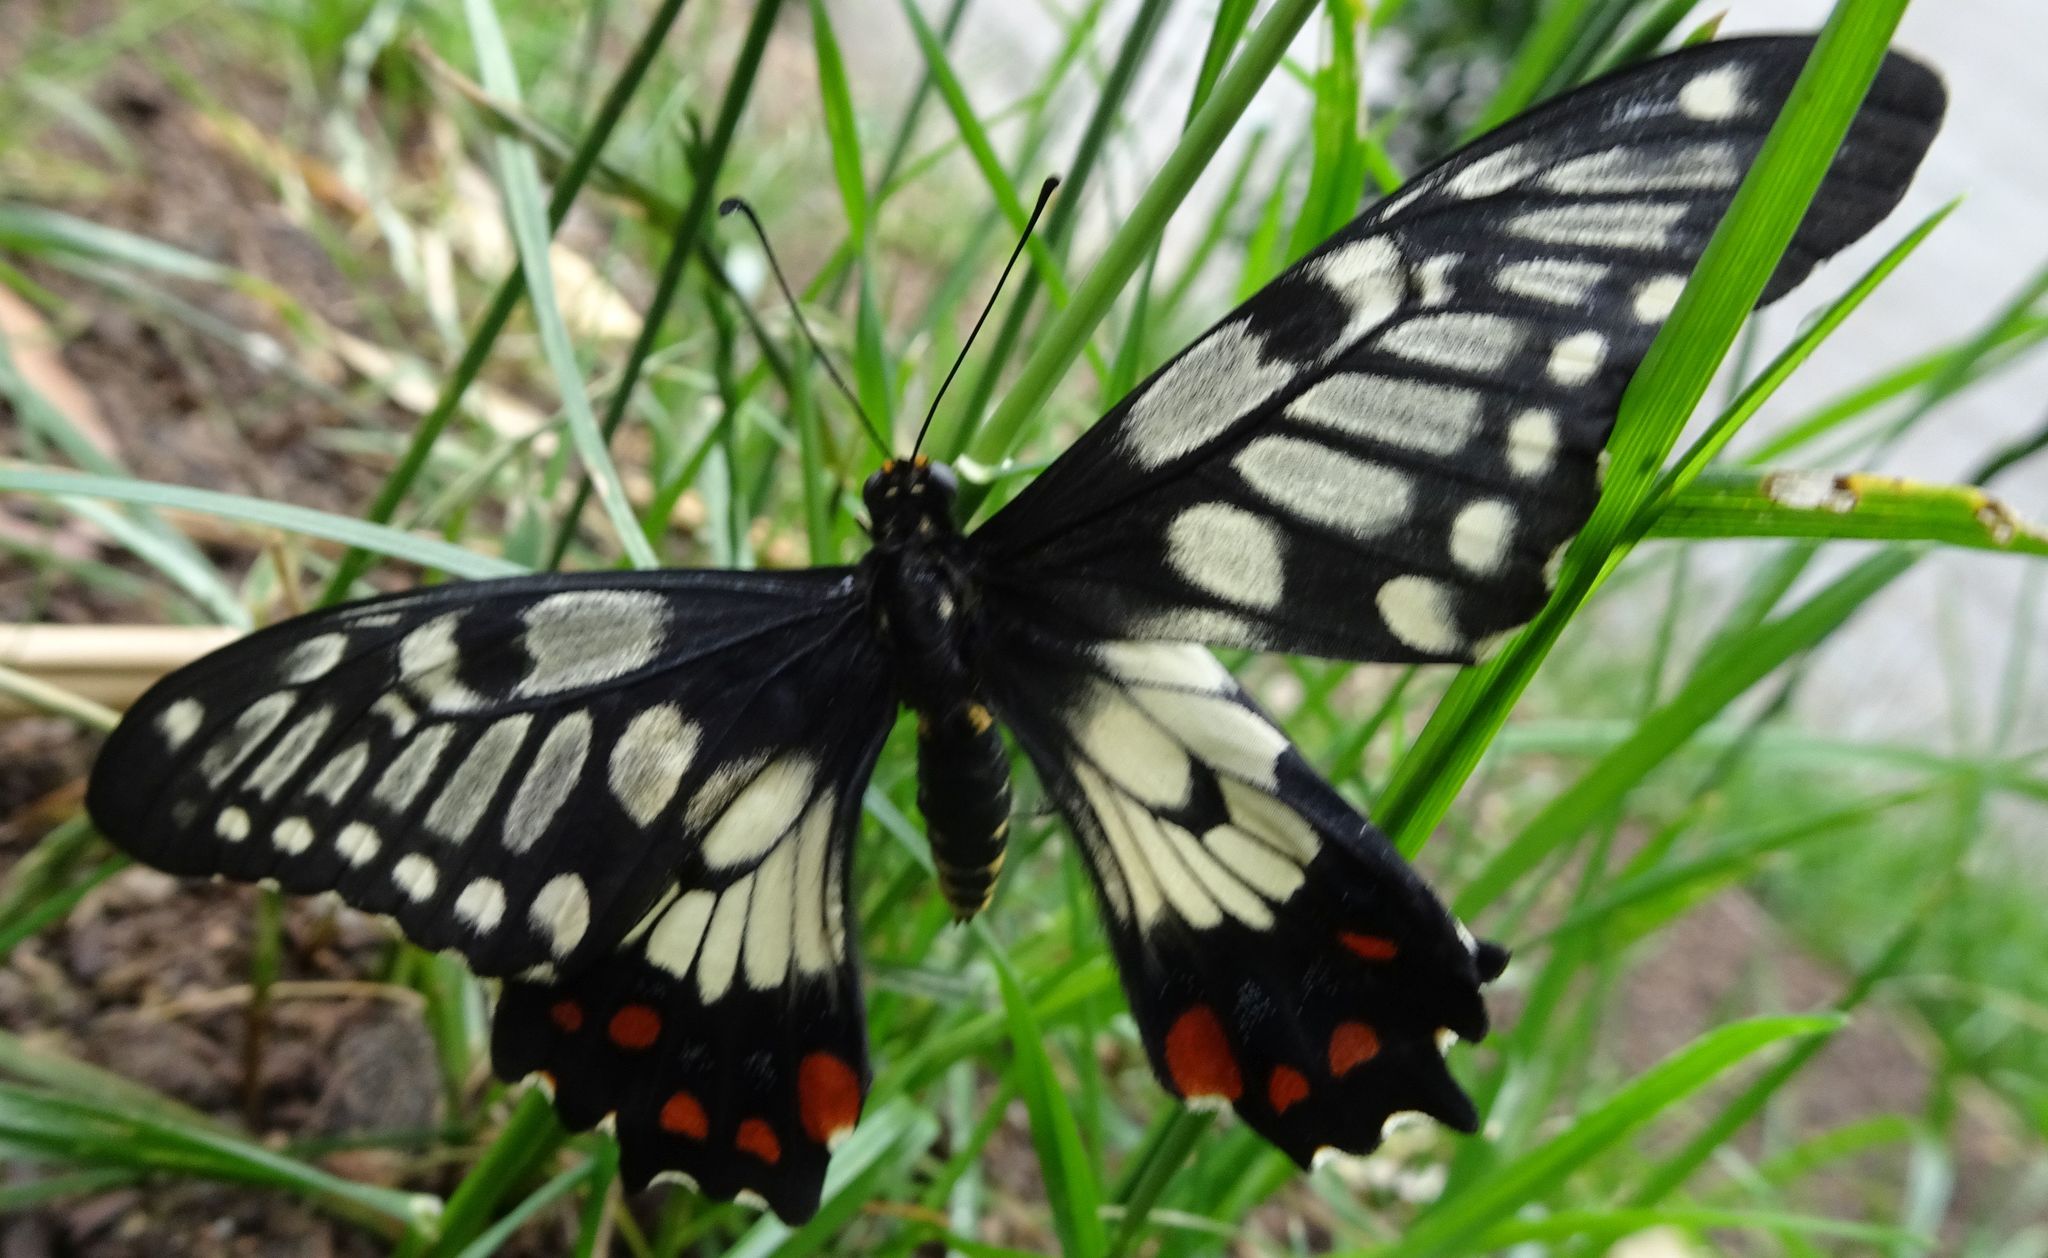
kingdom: Animalia
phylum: Arthropoda
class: Insecta
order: Lepidoptera
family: Papilionidae
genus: Papilio
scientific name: Papilio anactus
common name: Dingy swallowtail
